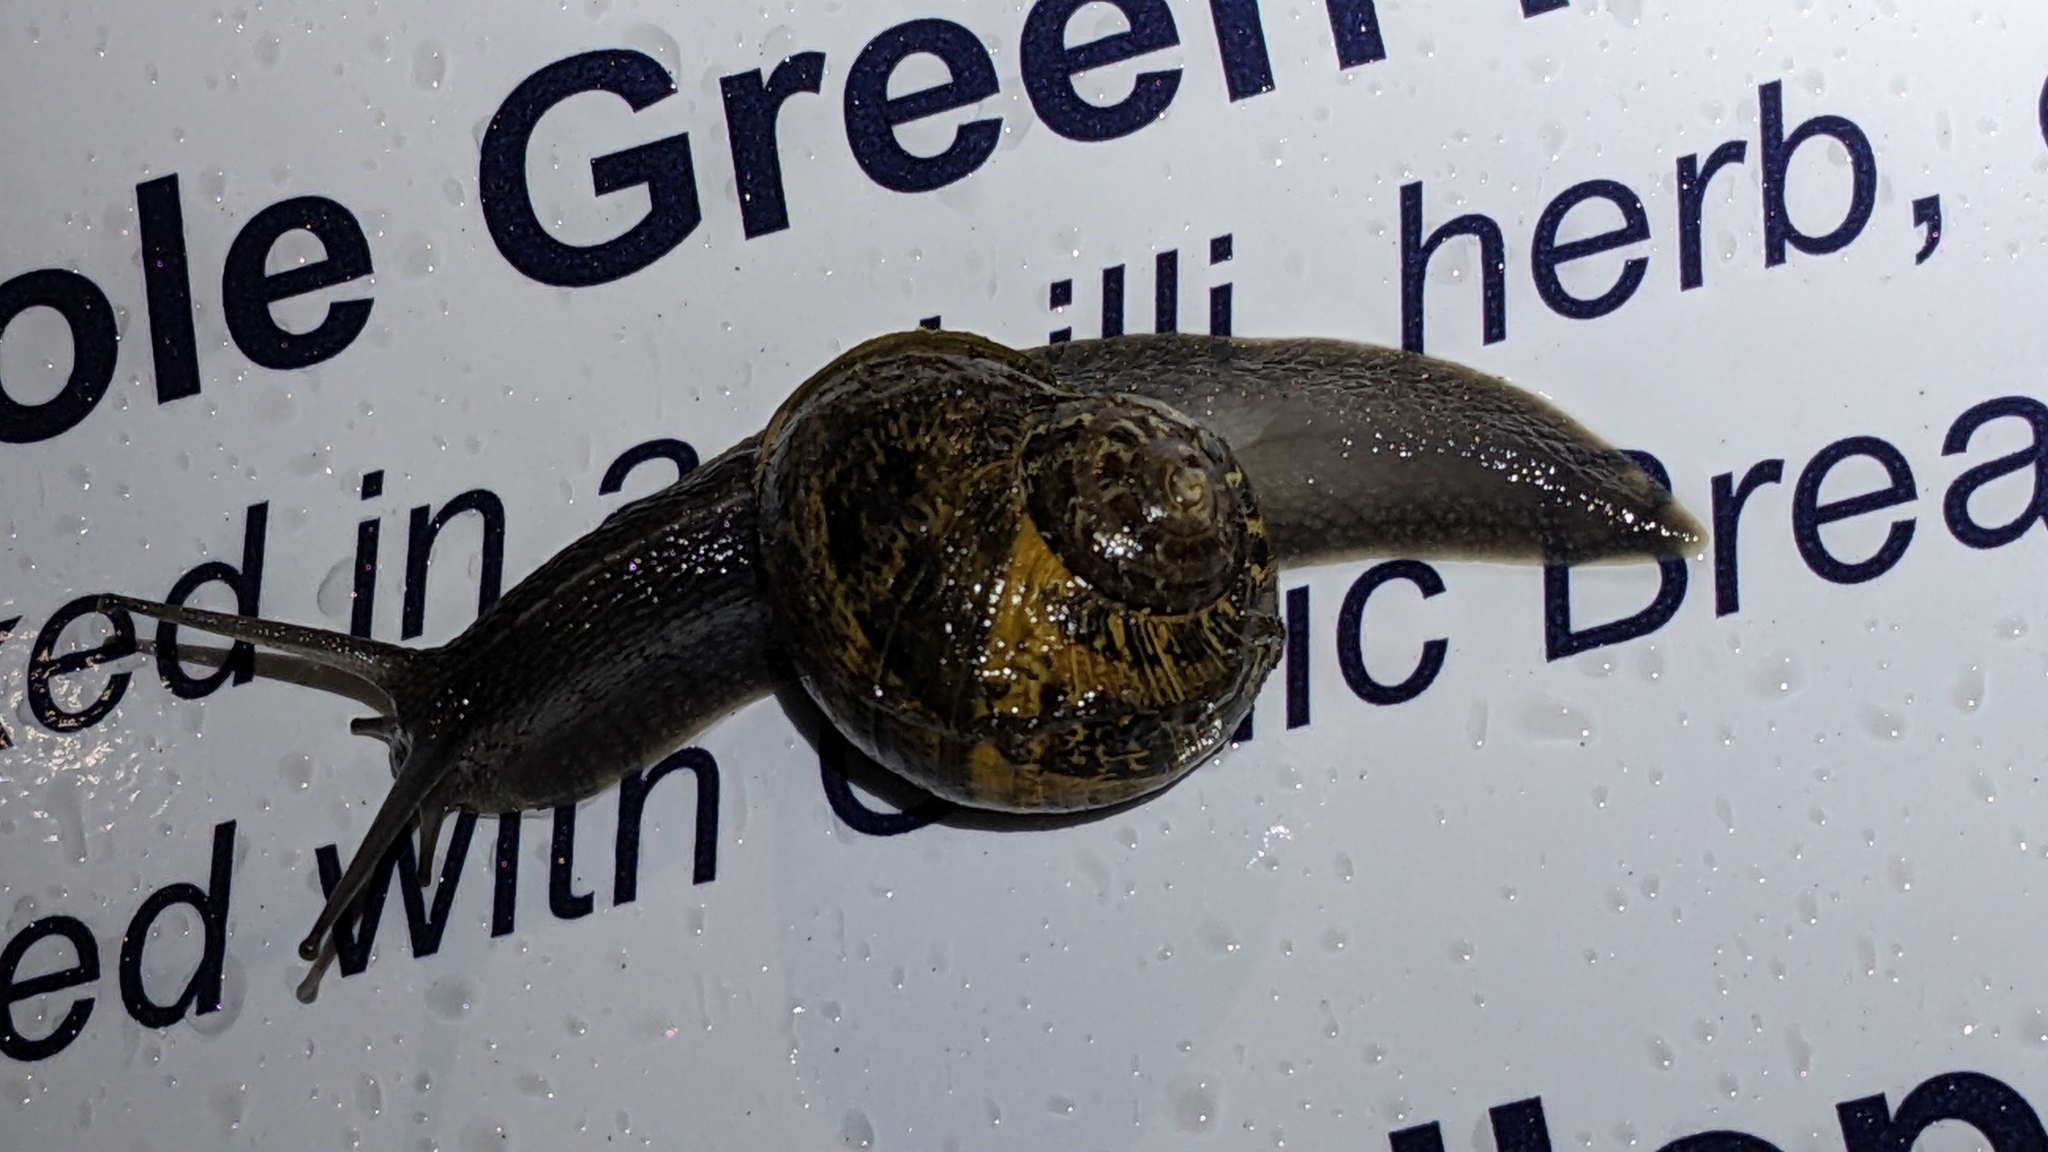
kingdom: Animalia
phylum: Mollusca
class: Gastropoda
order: Stylommatophora
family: Helicidae
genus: Cornu
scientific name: Cornu aspersum
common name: Brown garden snail
